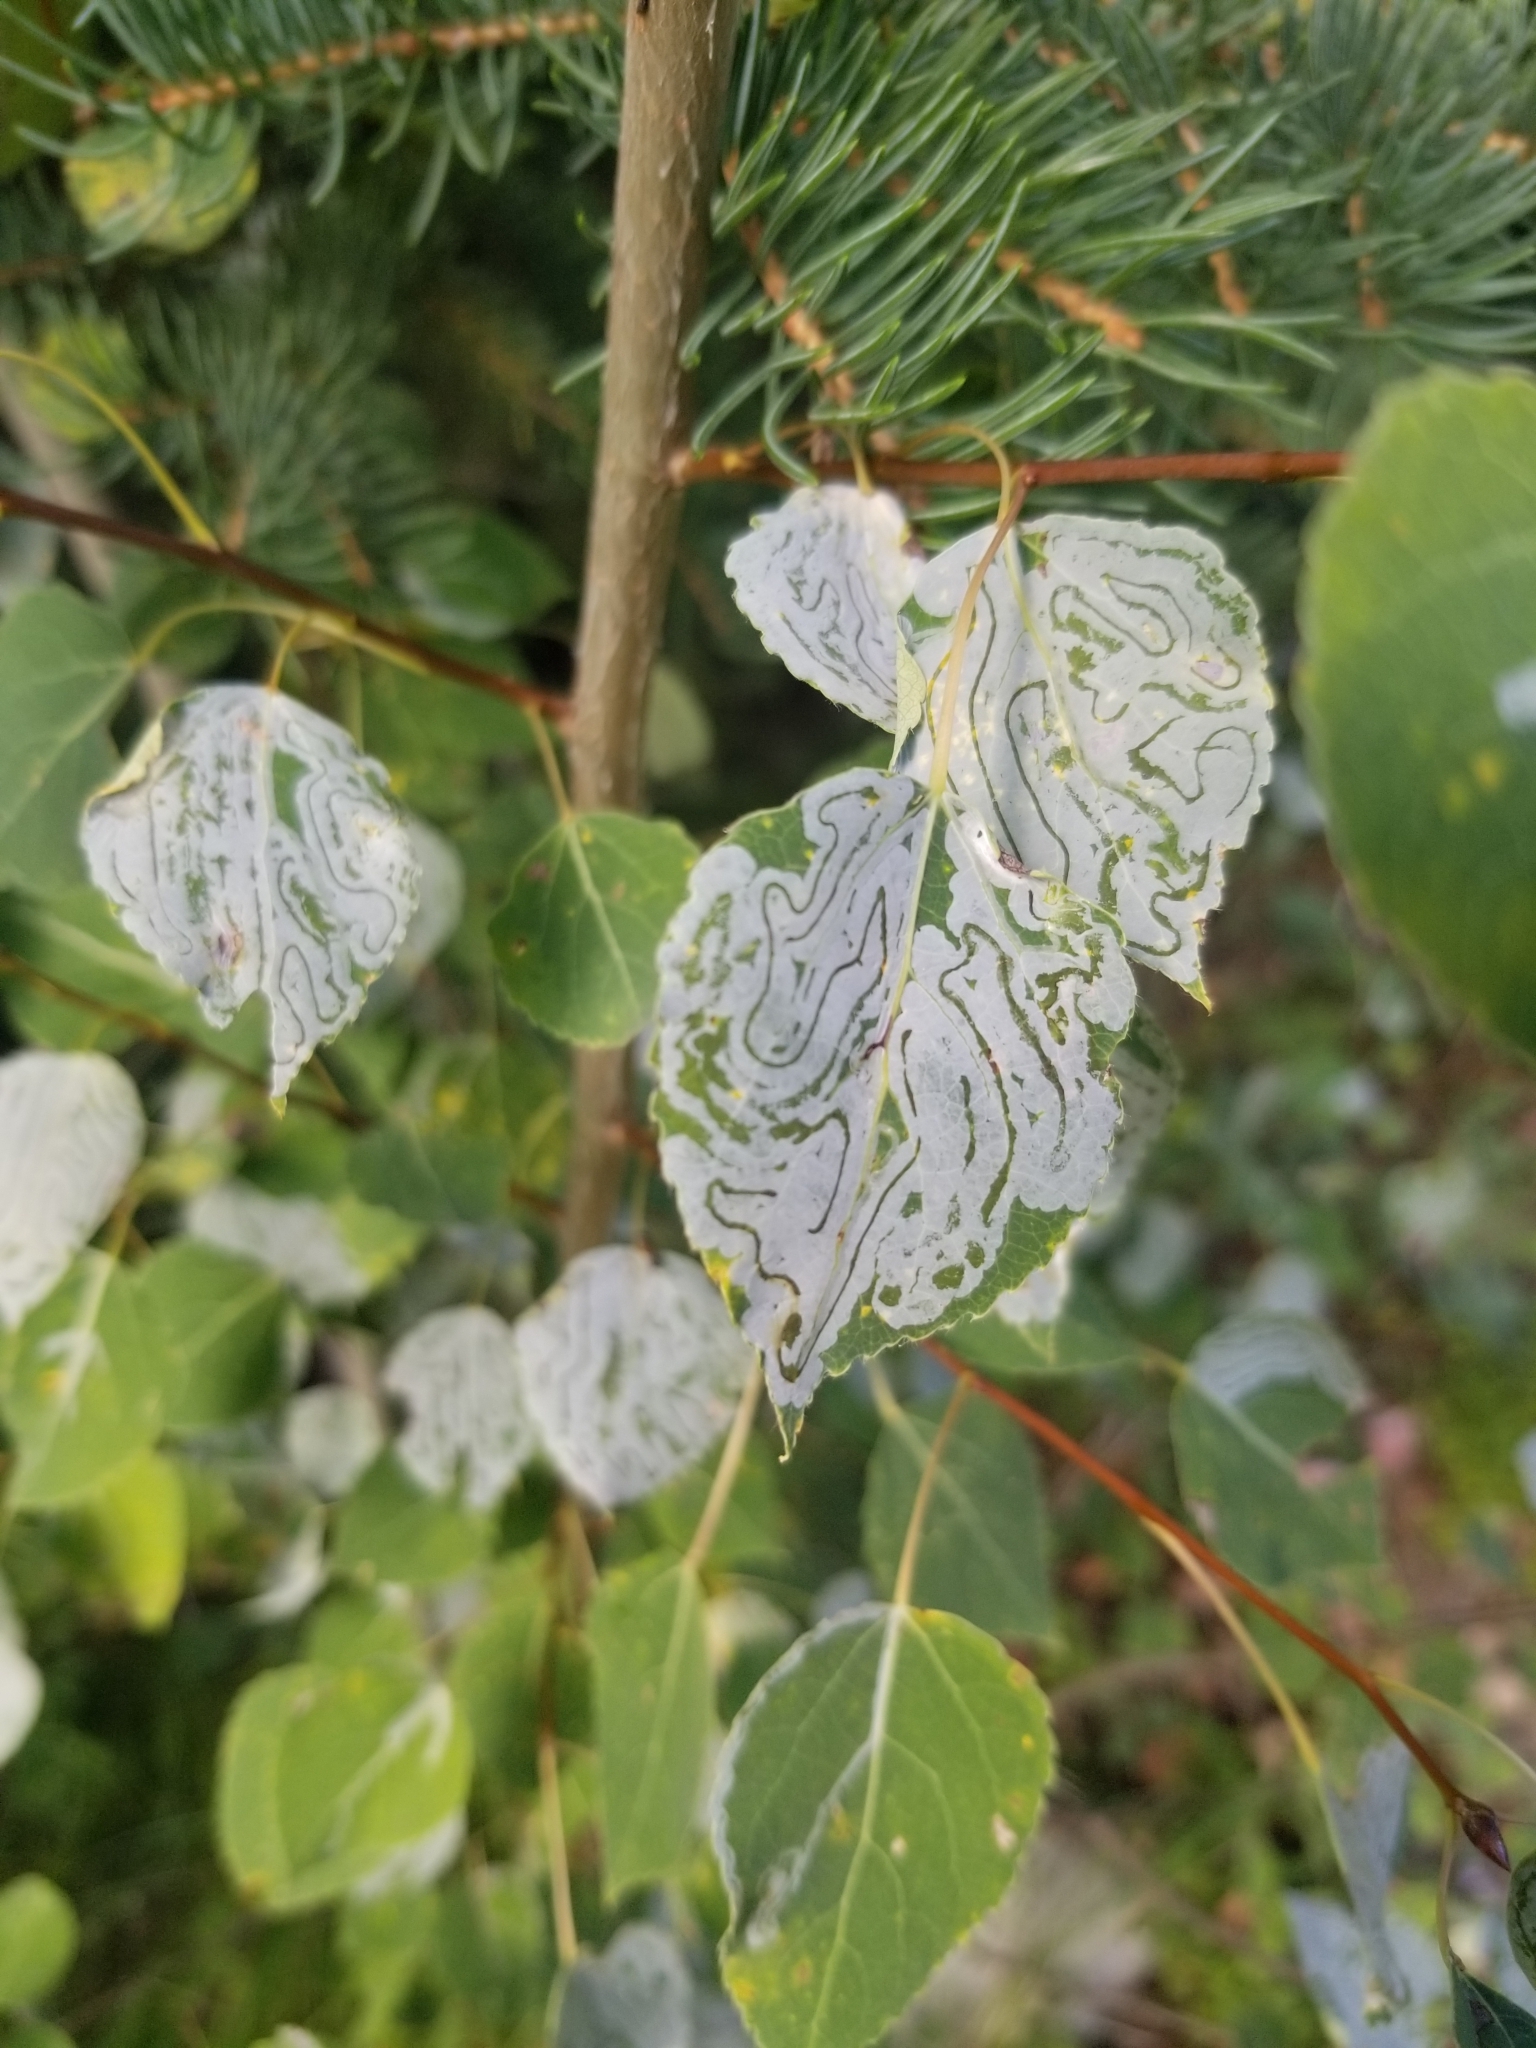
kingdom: Animalia
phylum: Arthropoda
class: Insecta
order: Lepidoptera
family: Gracillariidae
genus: Phyllocnistis
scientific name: Phyllocnistis populiella
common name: Aspen serpentine leafminer moth
